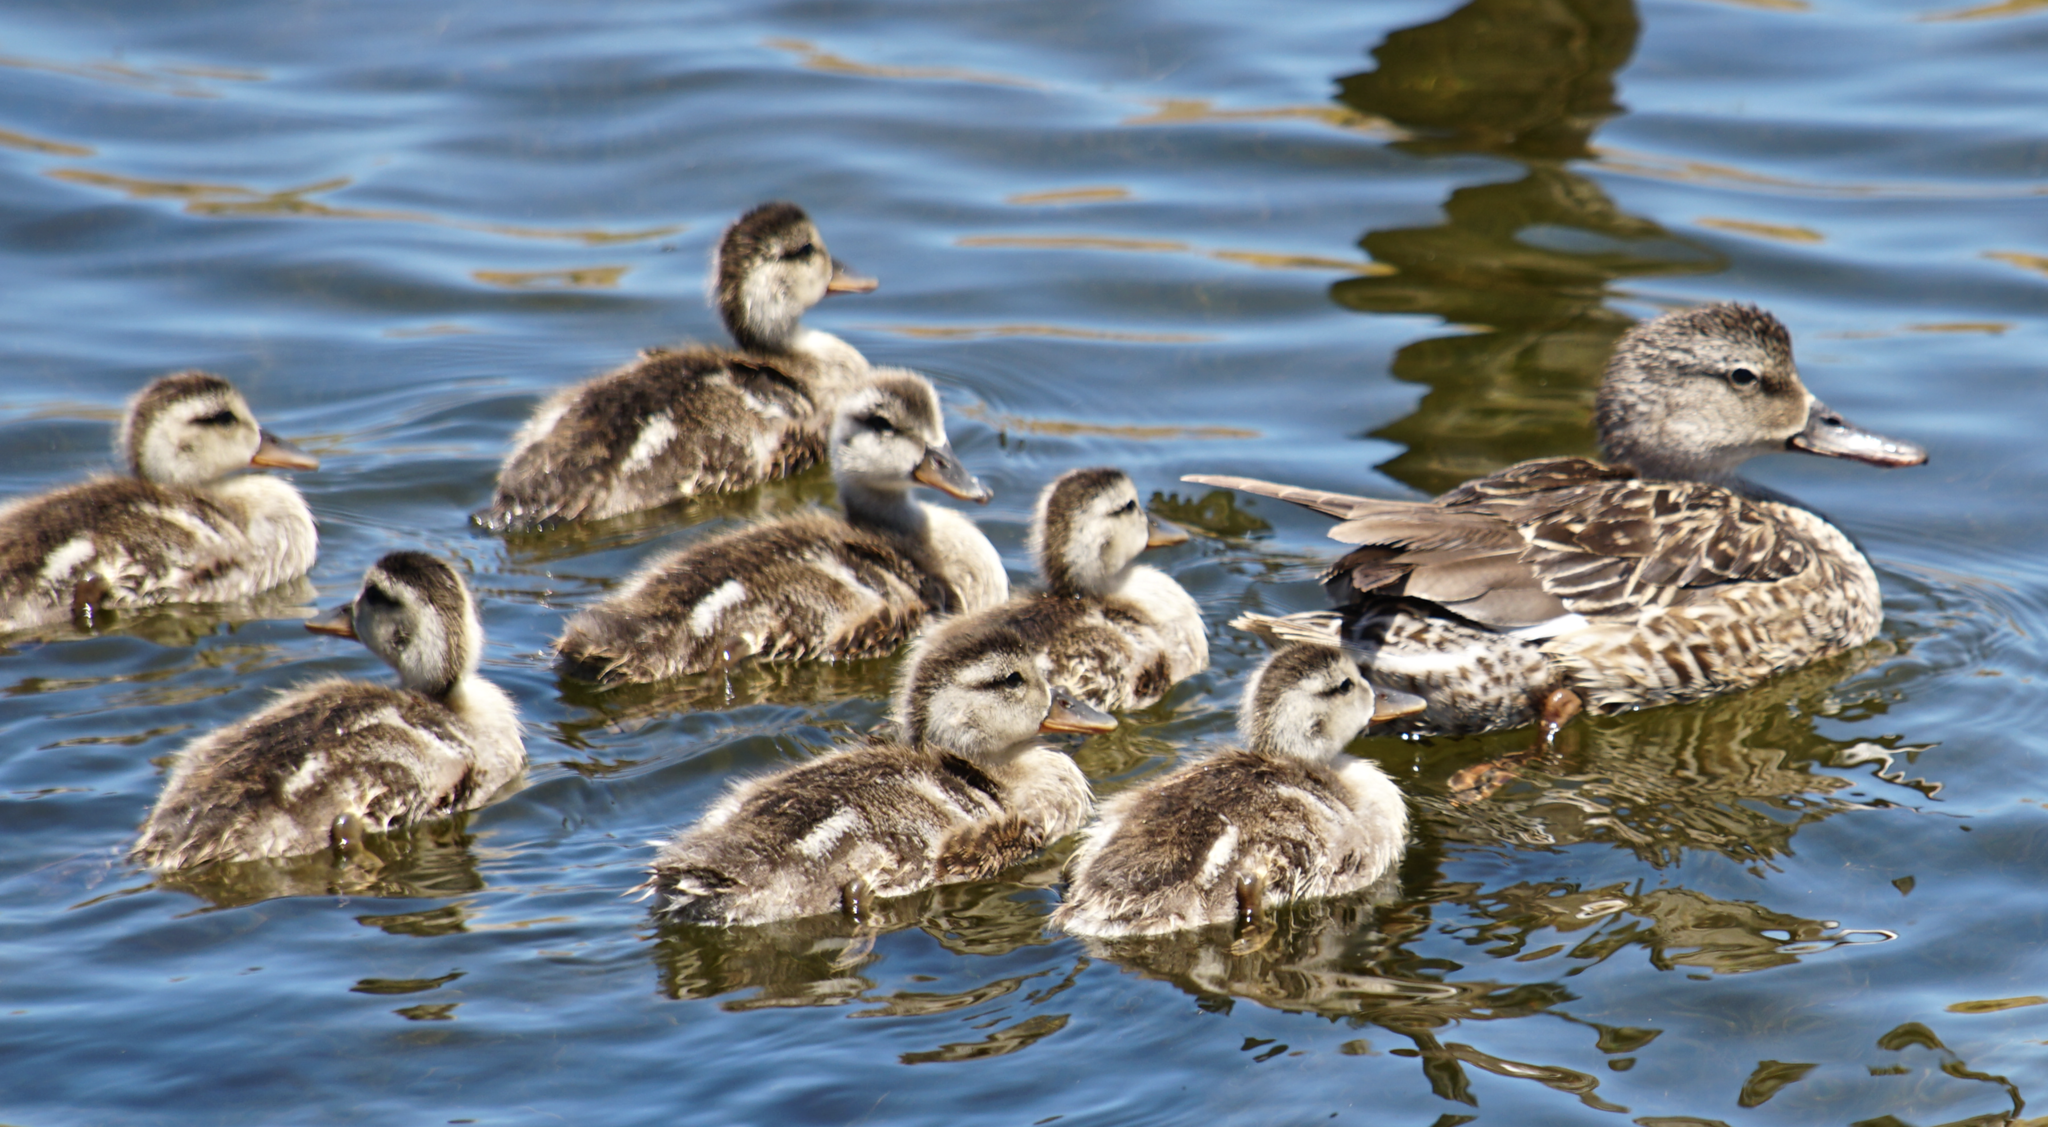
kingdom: Animalia
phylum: Chordata
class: Aves
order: Anseriformes
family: Anatidae
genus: Mareca
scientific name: Mareca strepera
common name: Gadwall
